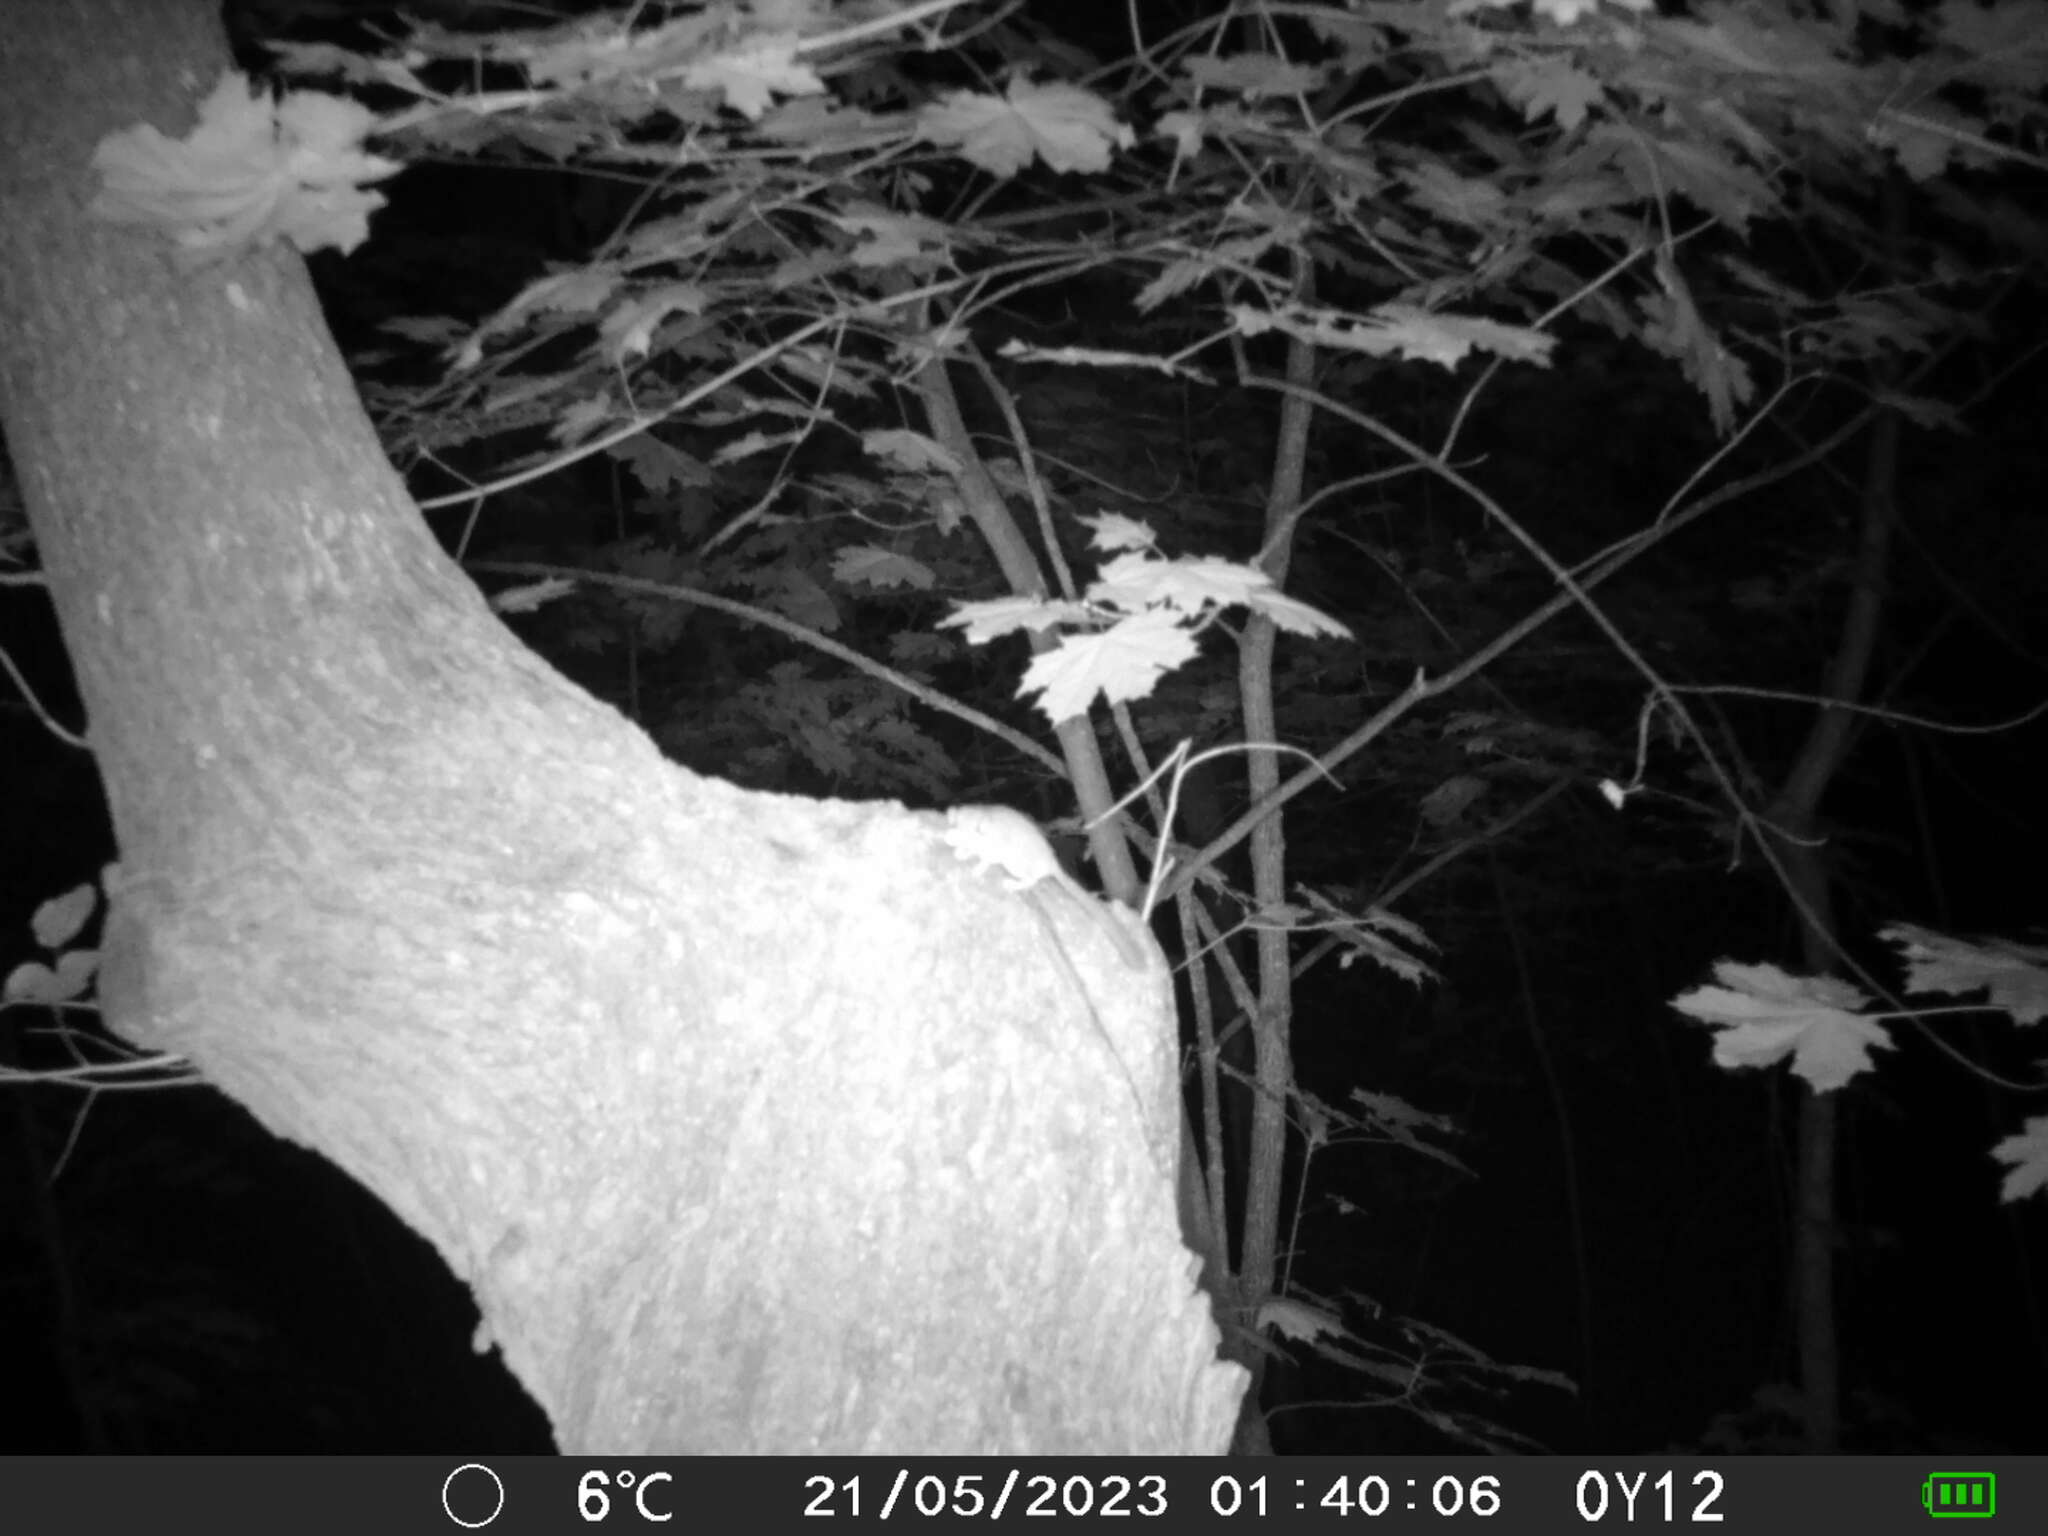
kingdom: Animalia
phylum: Chordata
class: Mammalia
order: Rodentia
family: Gliridae
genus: Dryomys
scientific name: Dryomys nitedula
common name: Forest dormouse
